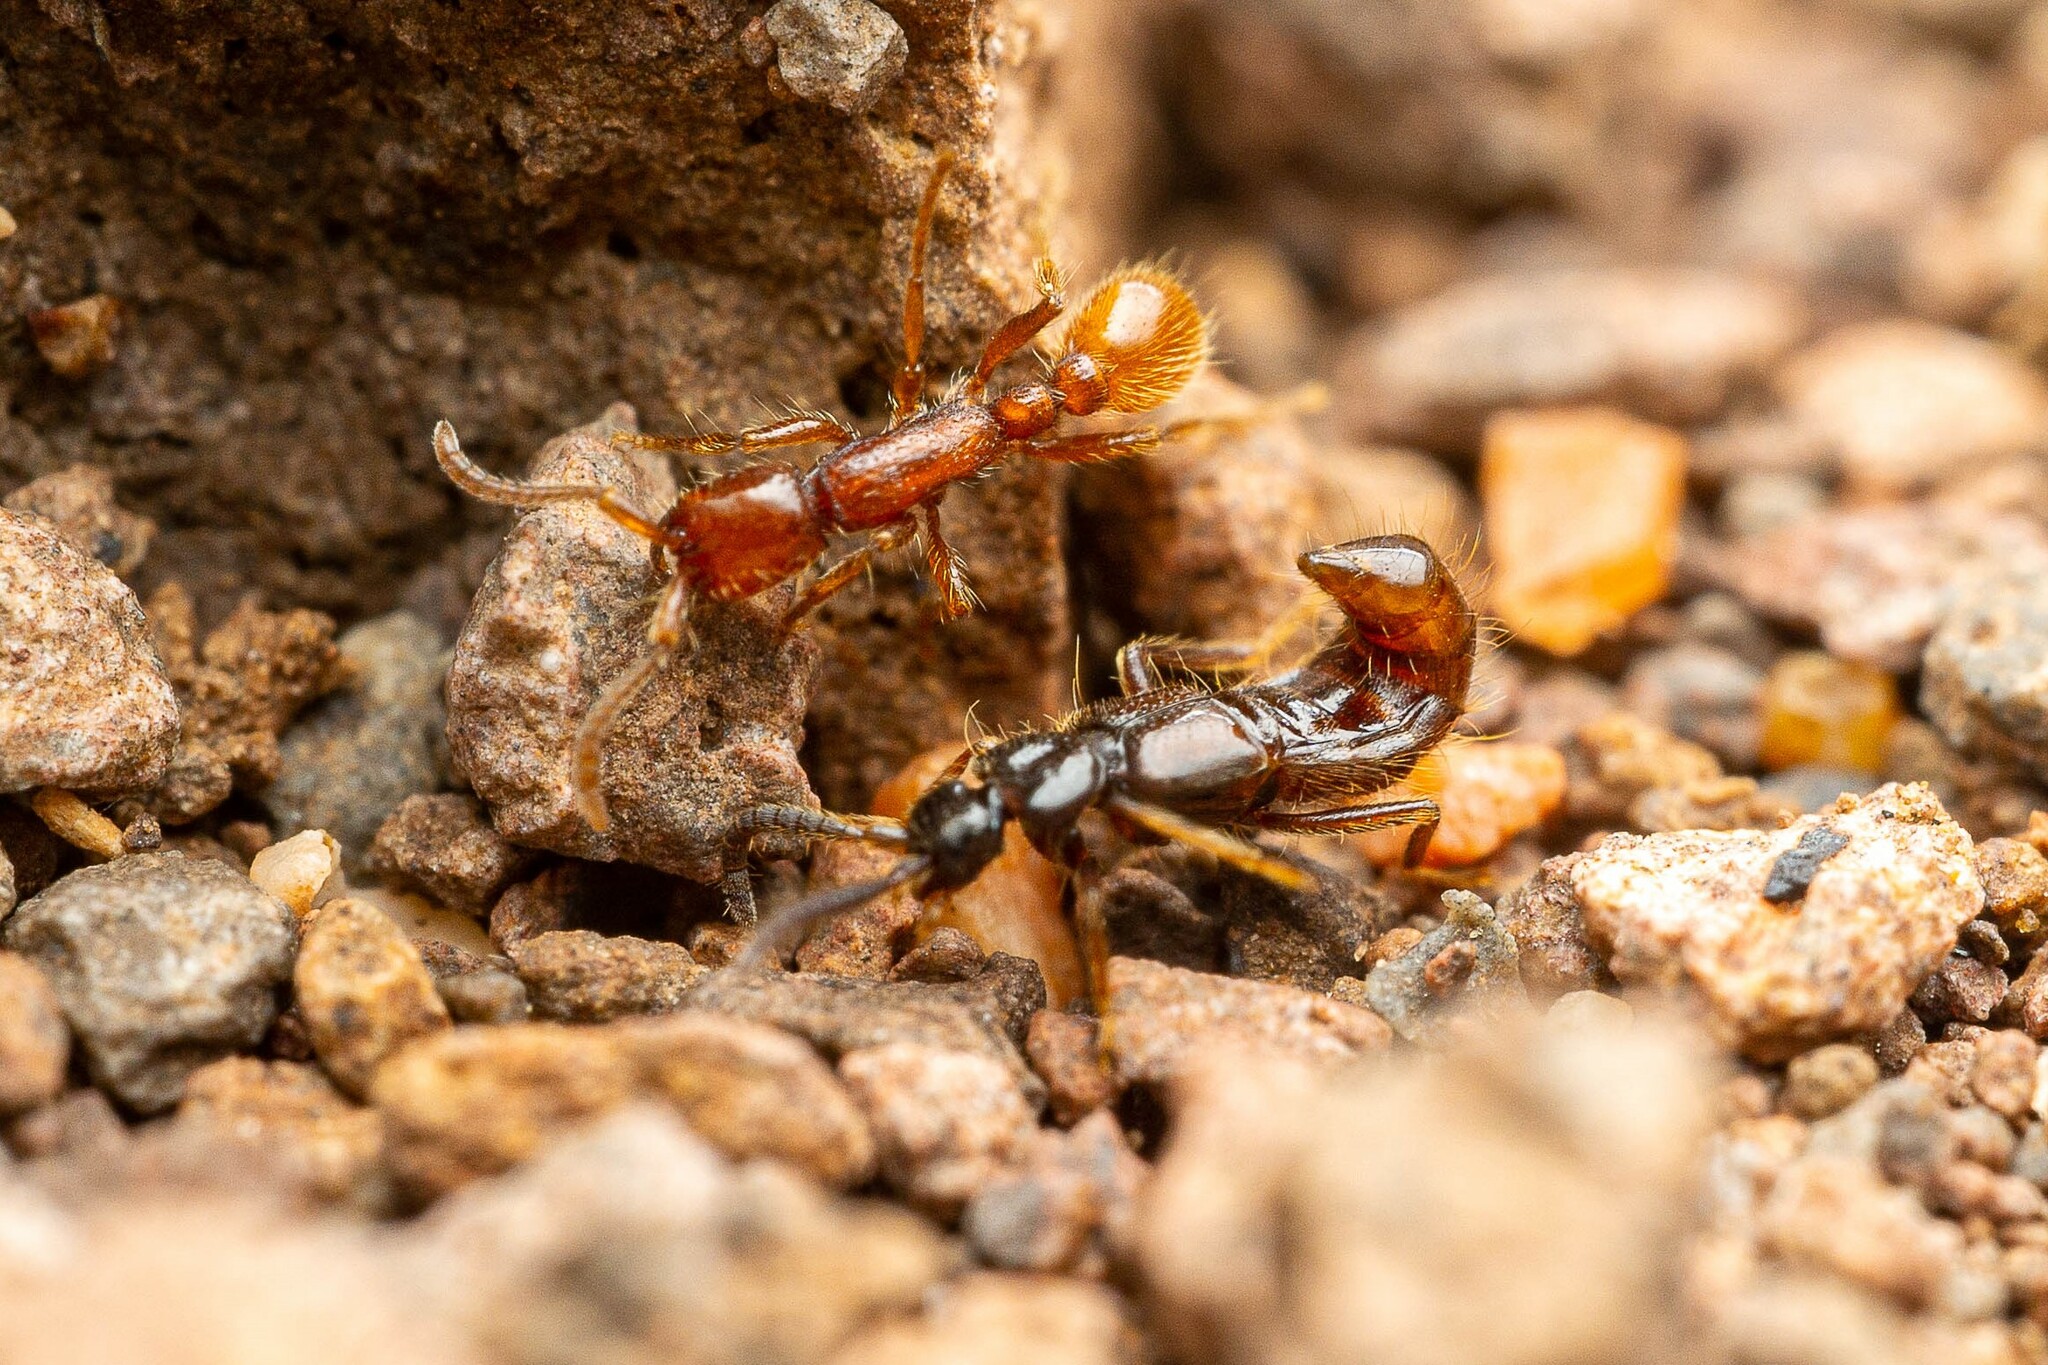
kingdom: Animalia
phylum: Arthropoda
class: Insecta
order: Coleoptera
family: Staphylinidae
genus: Dinocoryna
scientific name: Dinocoryna
